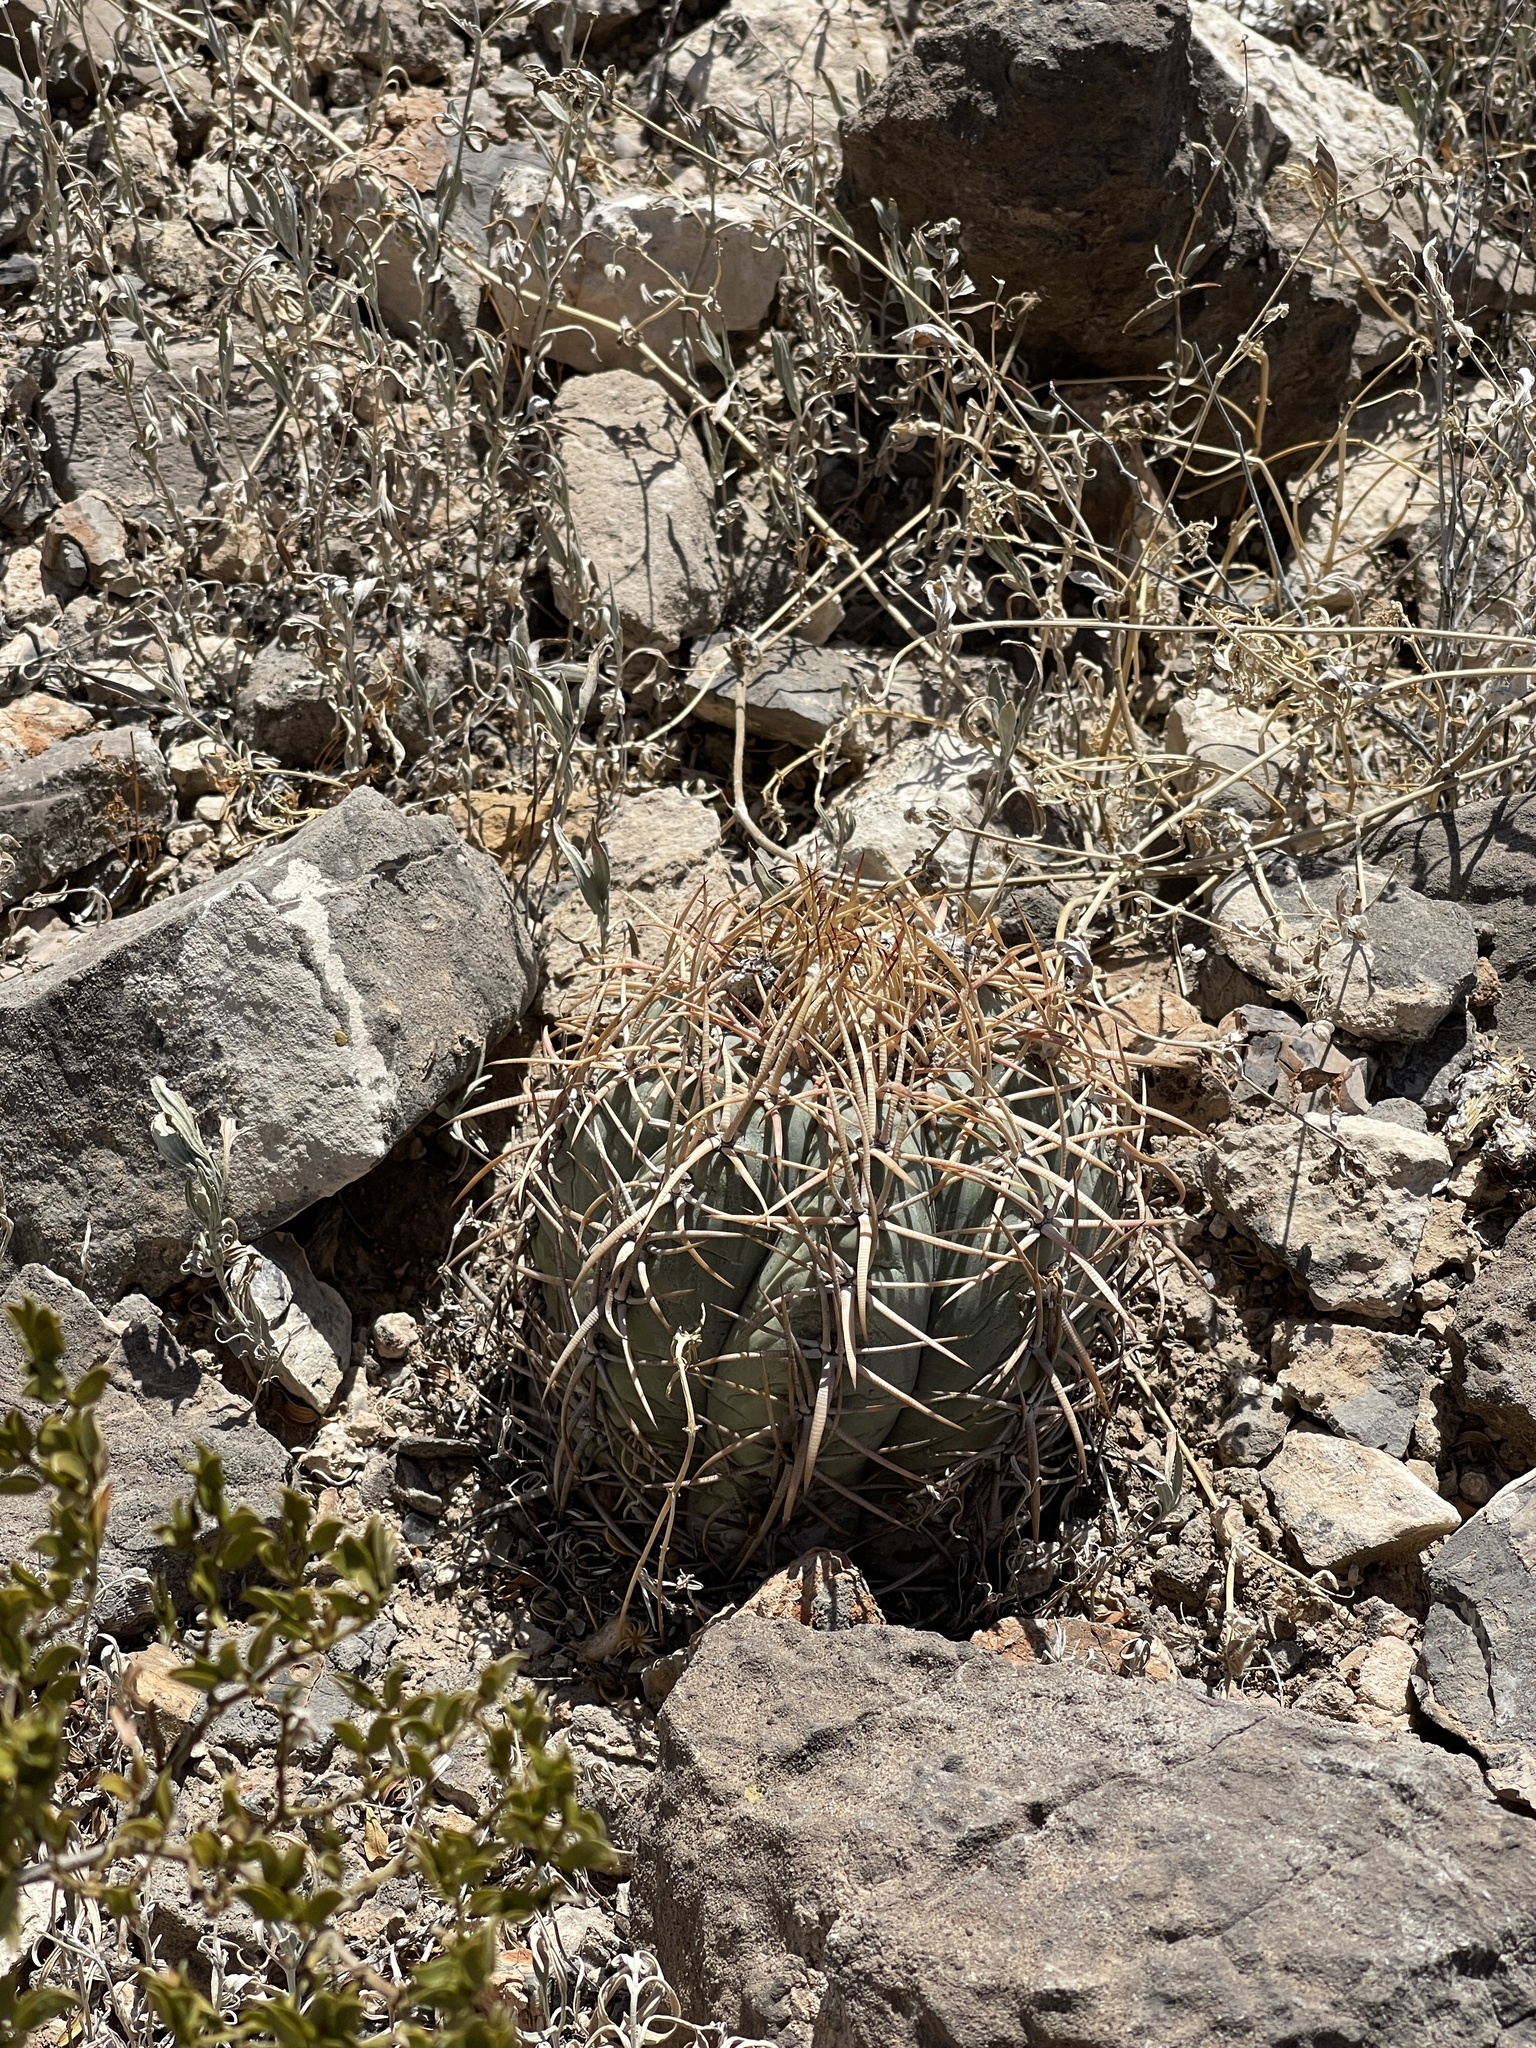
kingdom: Plantae
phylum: Tracheophyta
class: Magnoliopsida
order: Caryophyllales
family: Cactaceae
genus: Echinocactus
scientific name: Echinocactus horizonthalonius
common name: Devilshead
